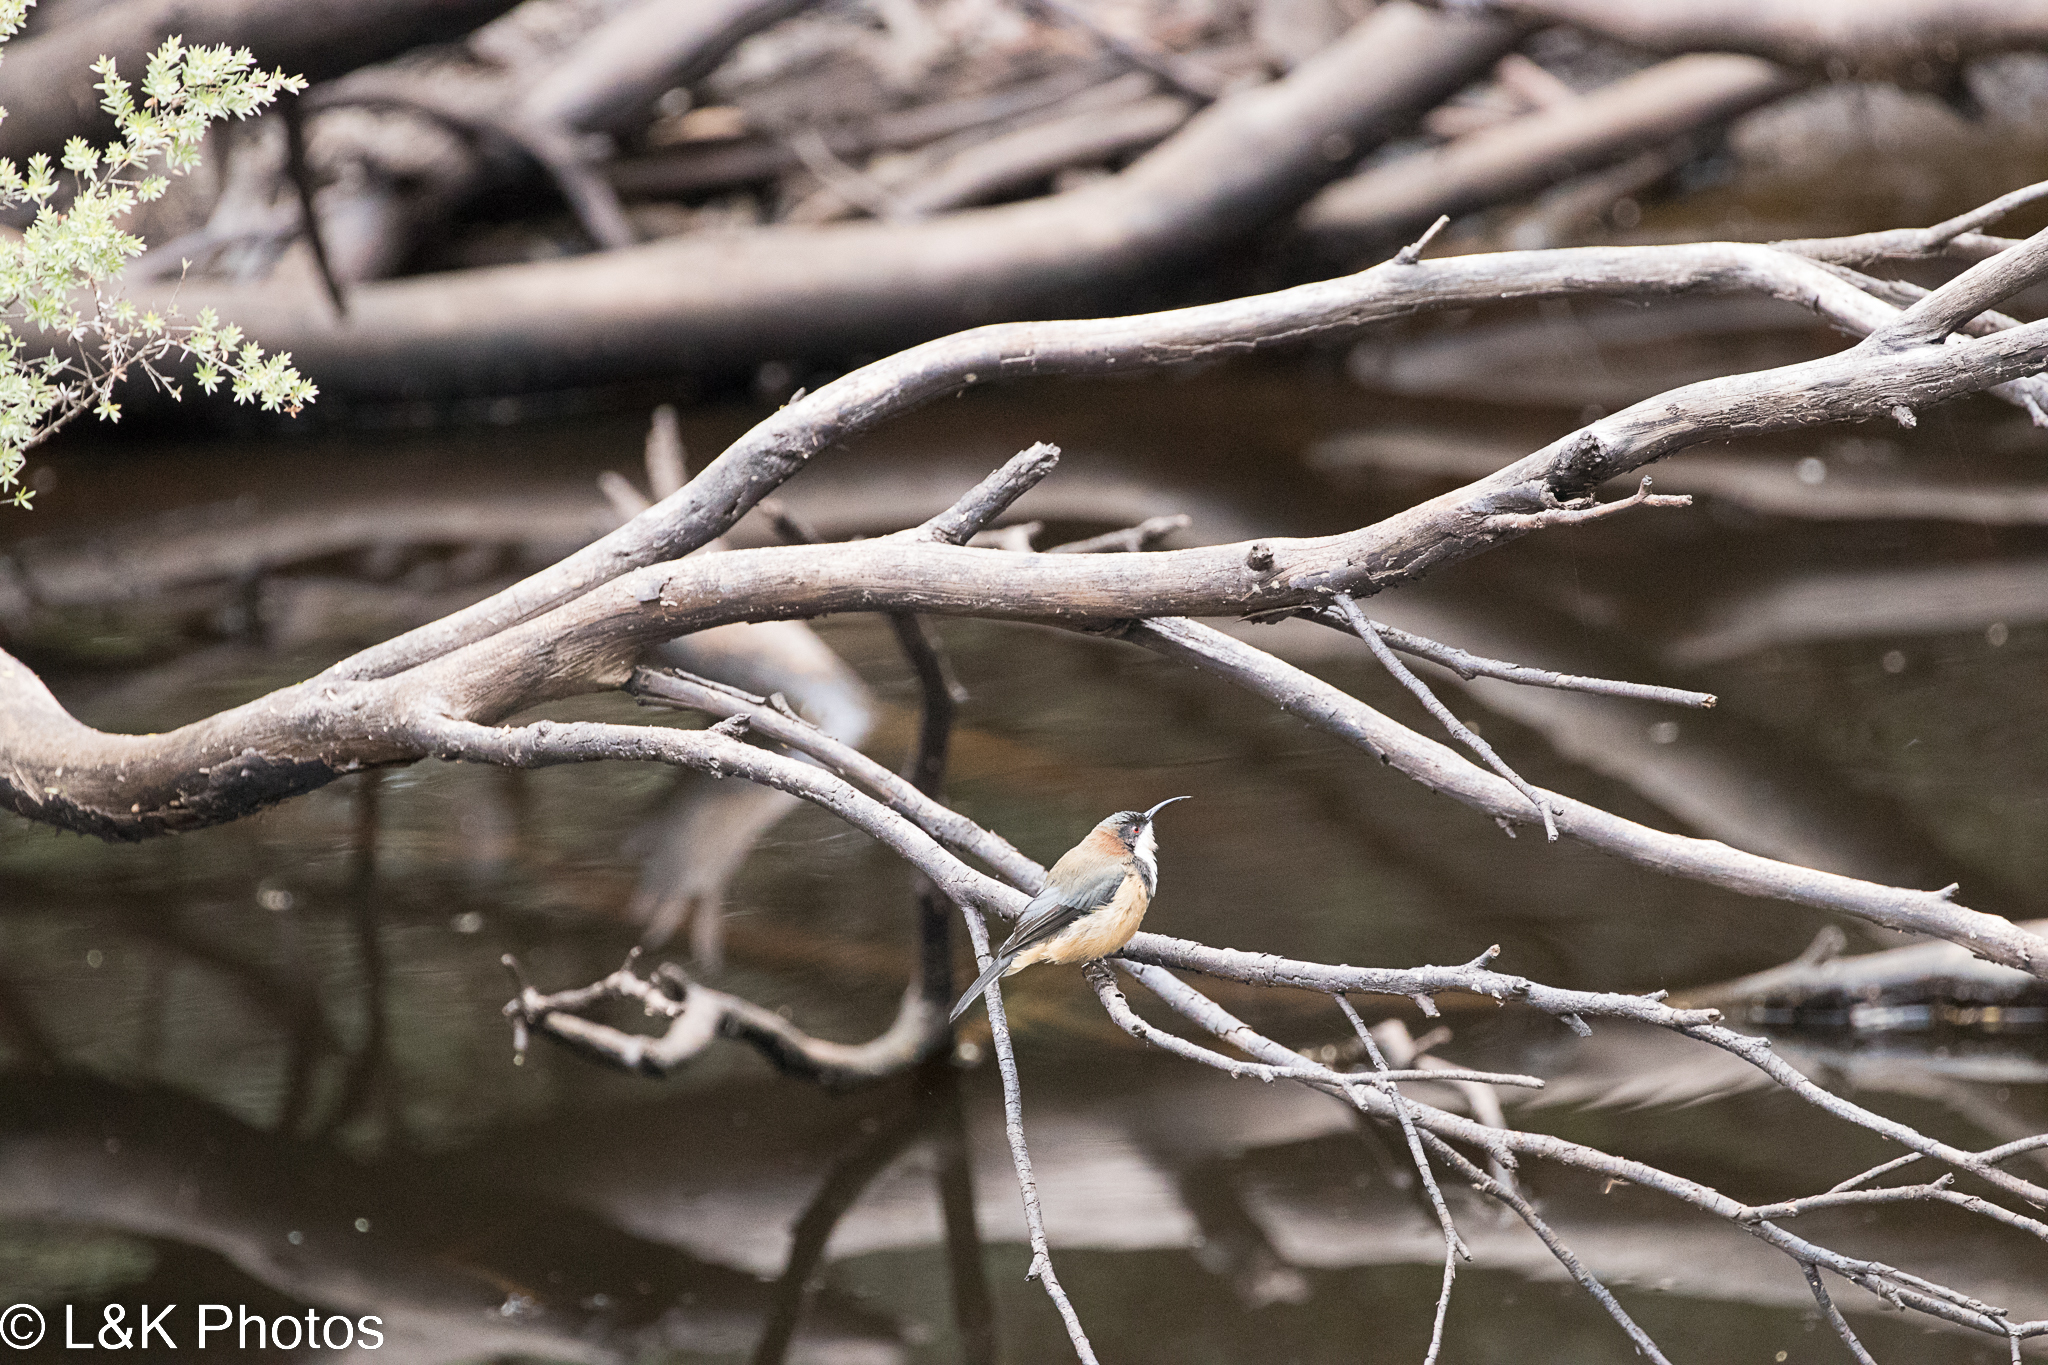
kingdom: Animalia
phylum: Chordata
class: Aves
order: Passeriformes
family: Meliphagidae
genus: Acanthorhynchus
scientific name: Acanthorhynchus tenuirostris
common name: Eastern spinebill
